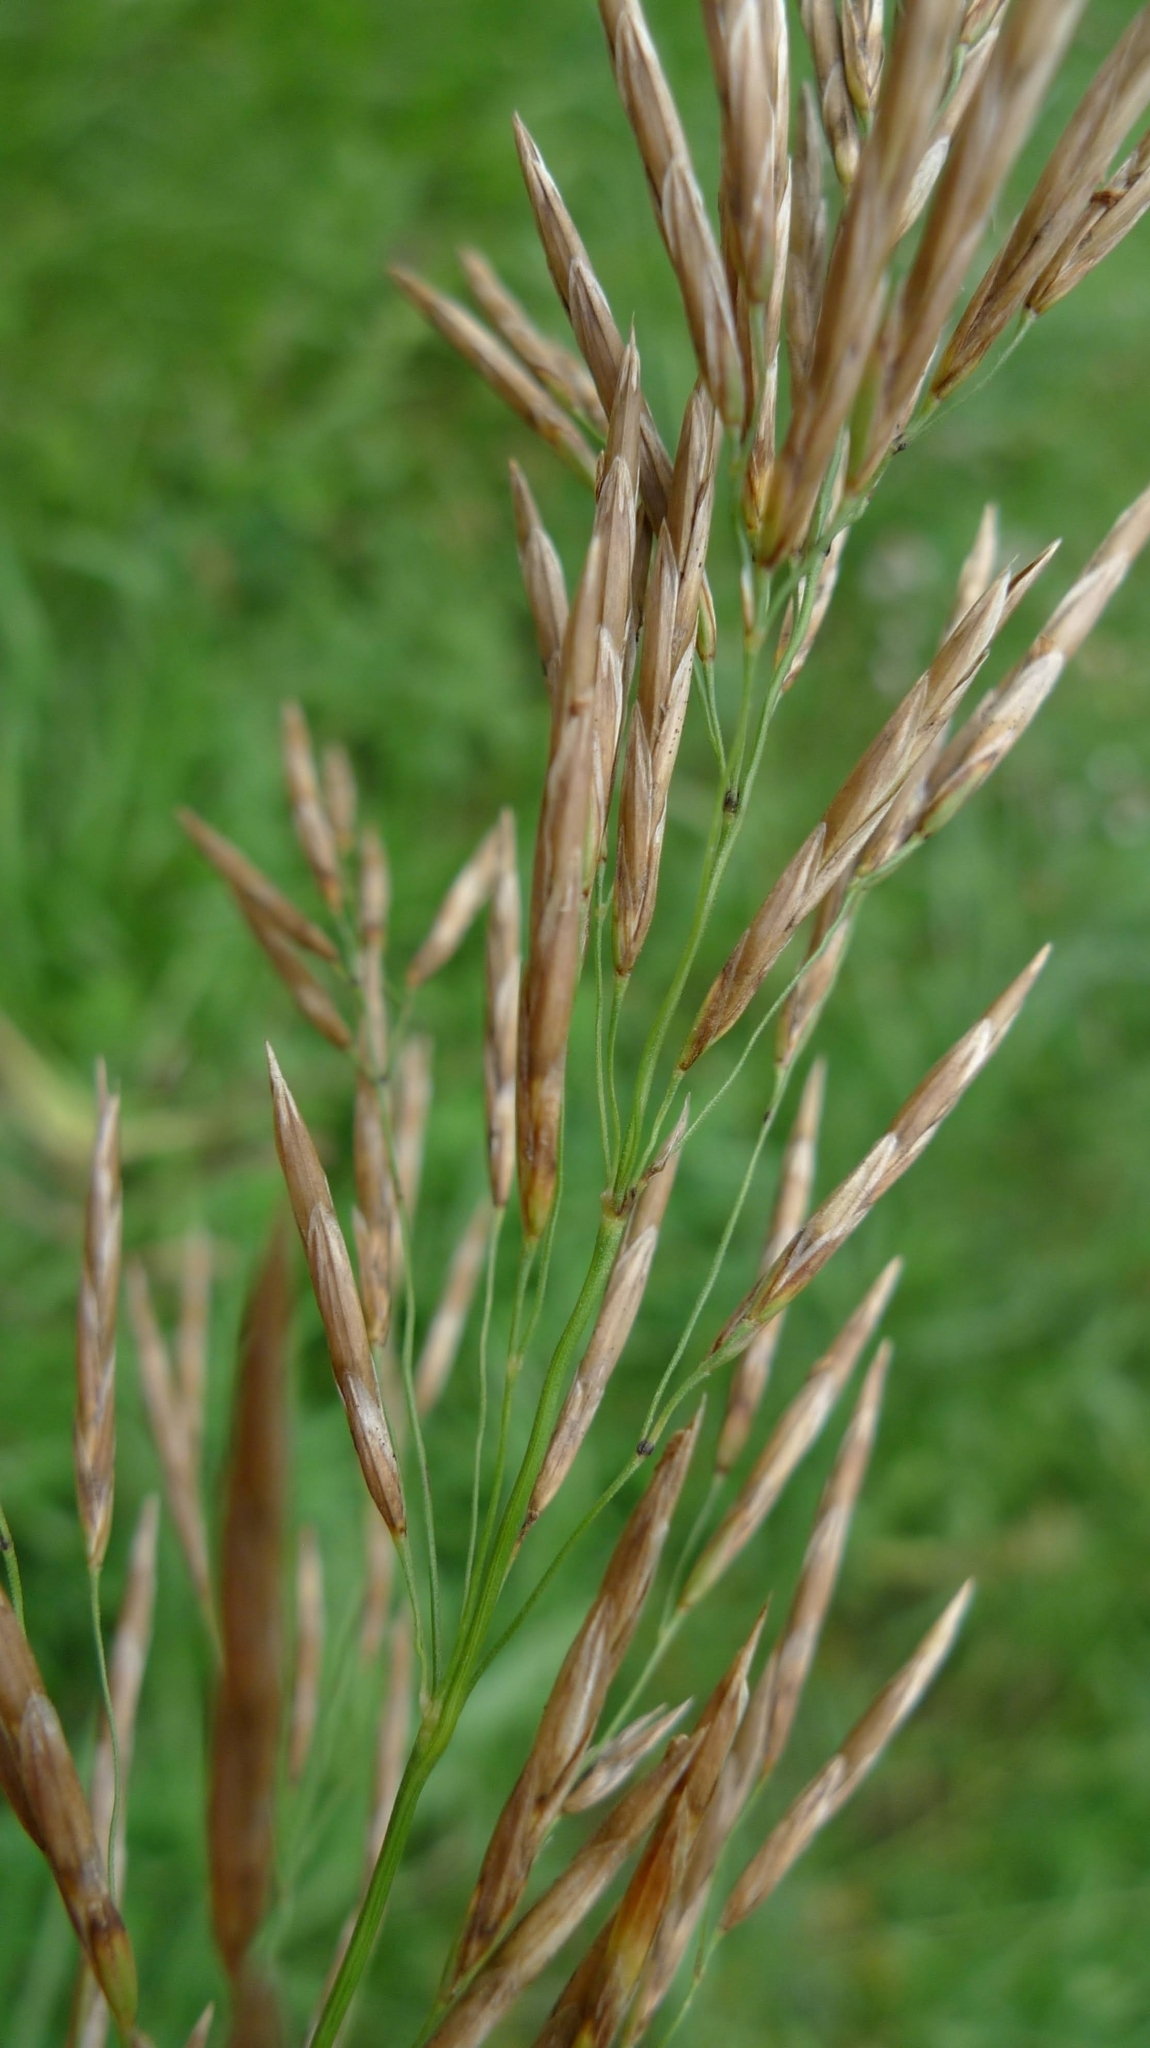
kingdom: Plantae
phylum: Tracheophyta
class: Liliopsida
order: Poales
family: Poaceae
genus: Bromus
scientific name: Bromus inermis
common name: Smooth brome
